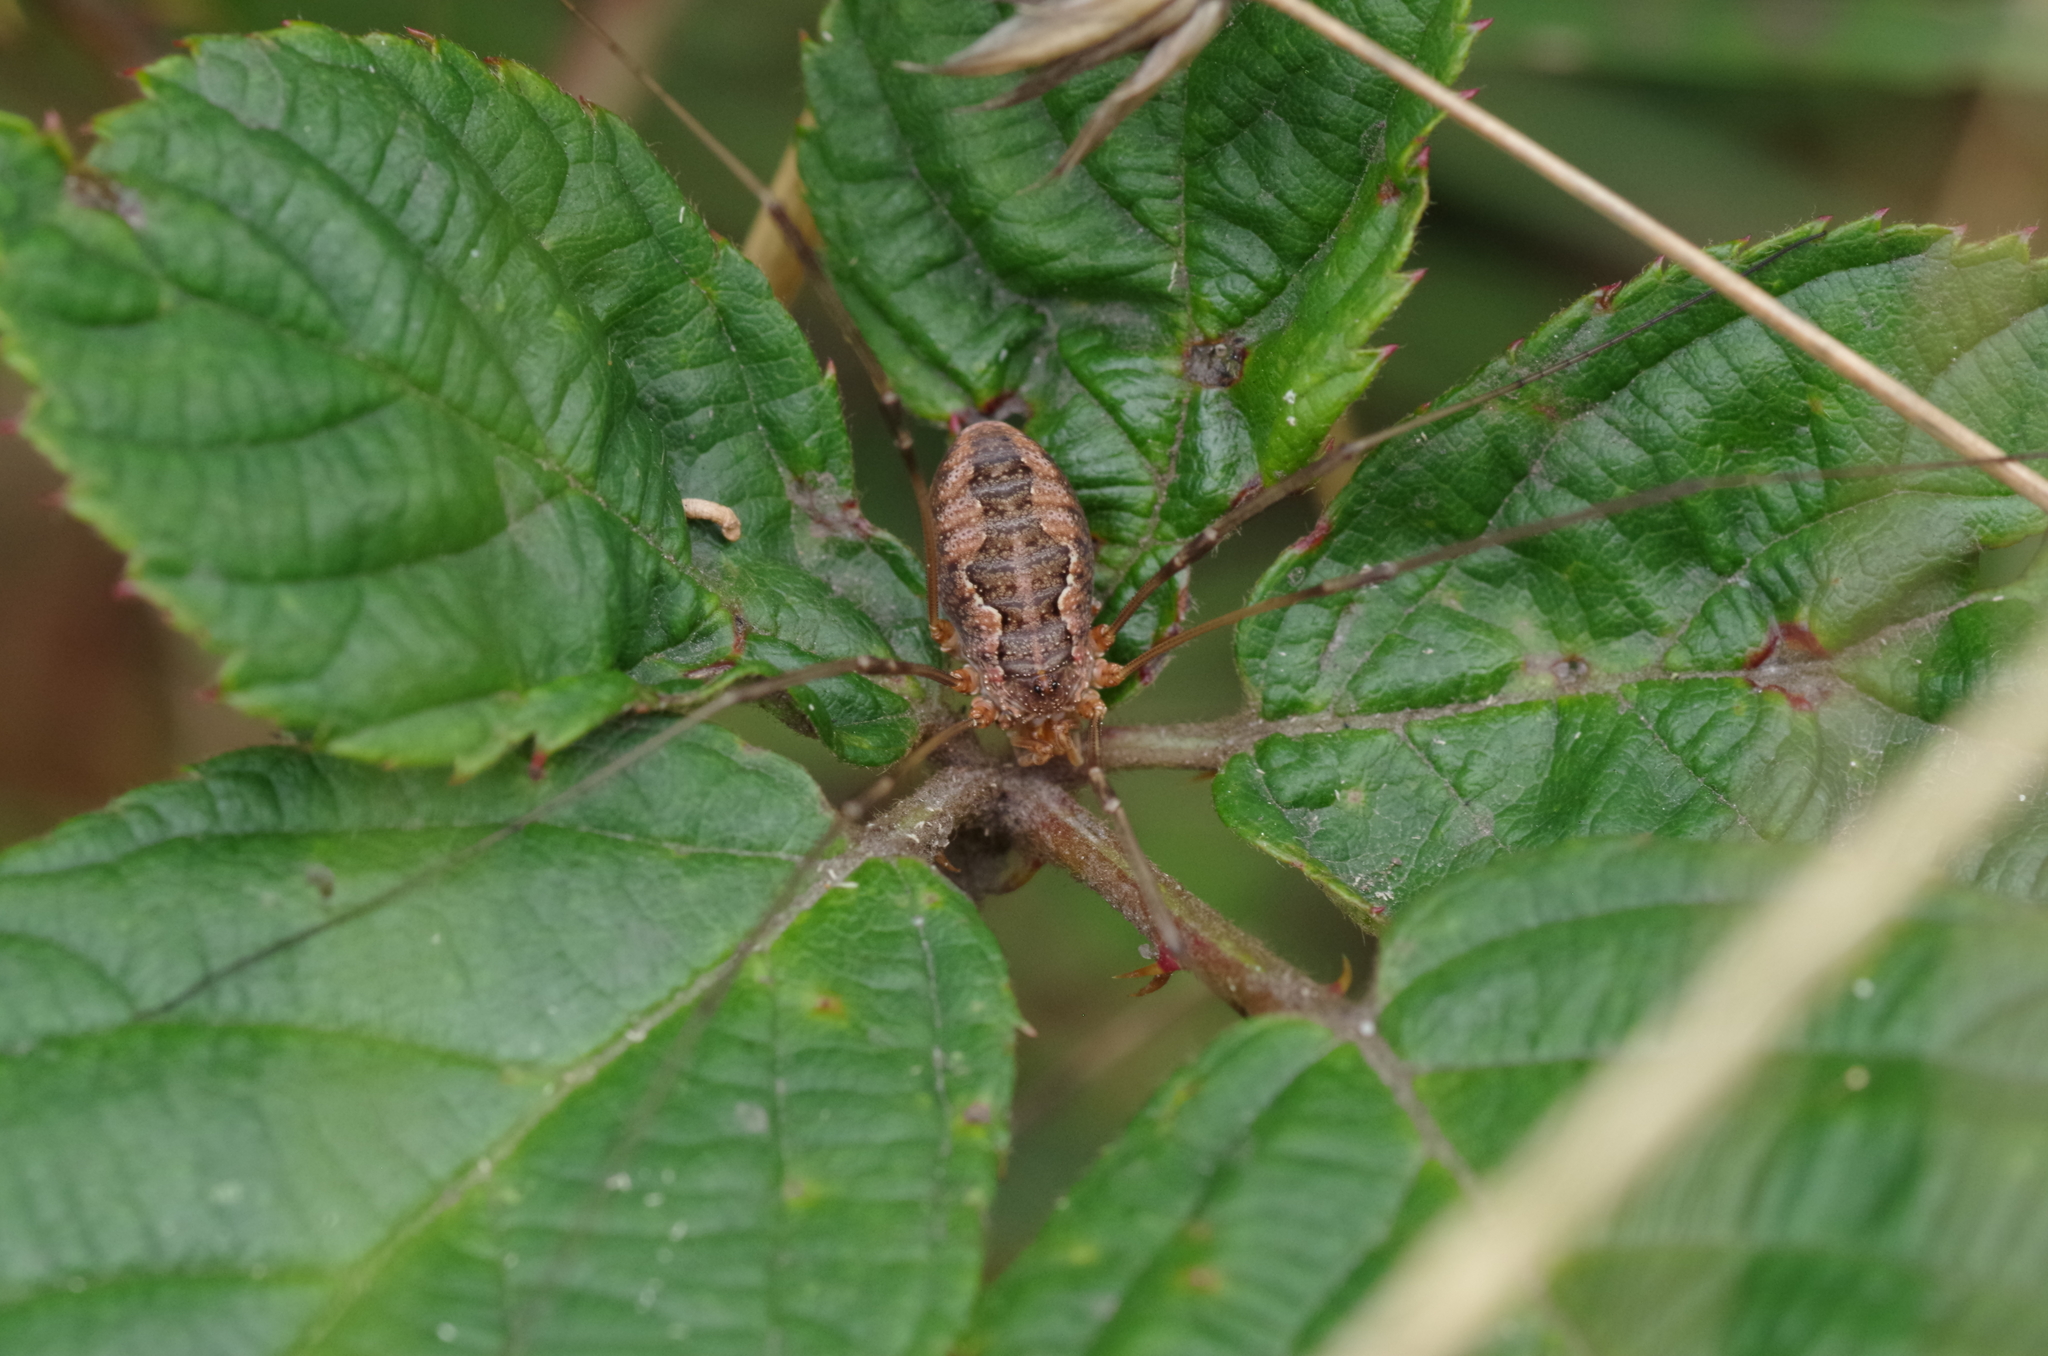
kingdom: Animalia
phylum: Arthropoda
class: Arachnida
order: Opiliones
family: Phalangiidae
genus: Phalangium
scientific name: Phalangium opilio
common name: Daddy longleg
